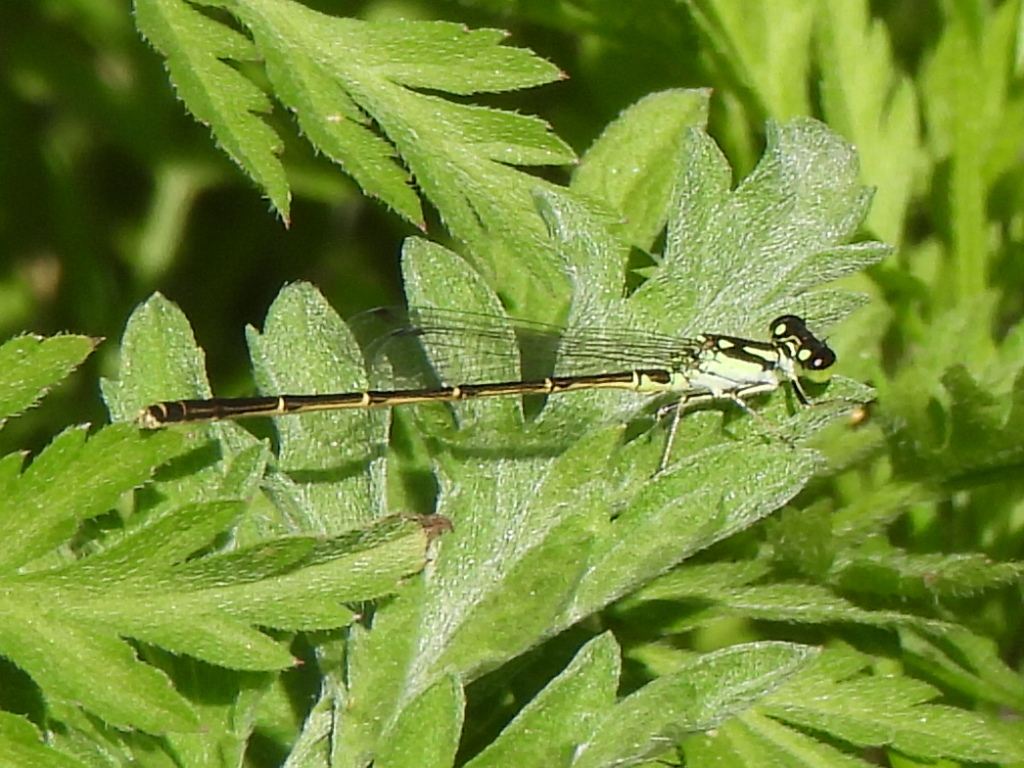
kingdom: Animalia
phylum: Arthropoda
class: Insecta
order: Odonata
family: Coenagrionidae
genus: Ischnura
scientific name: Ischnura posita
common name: Fragile forktail
